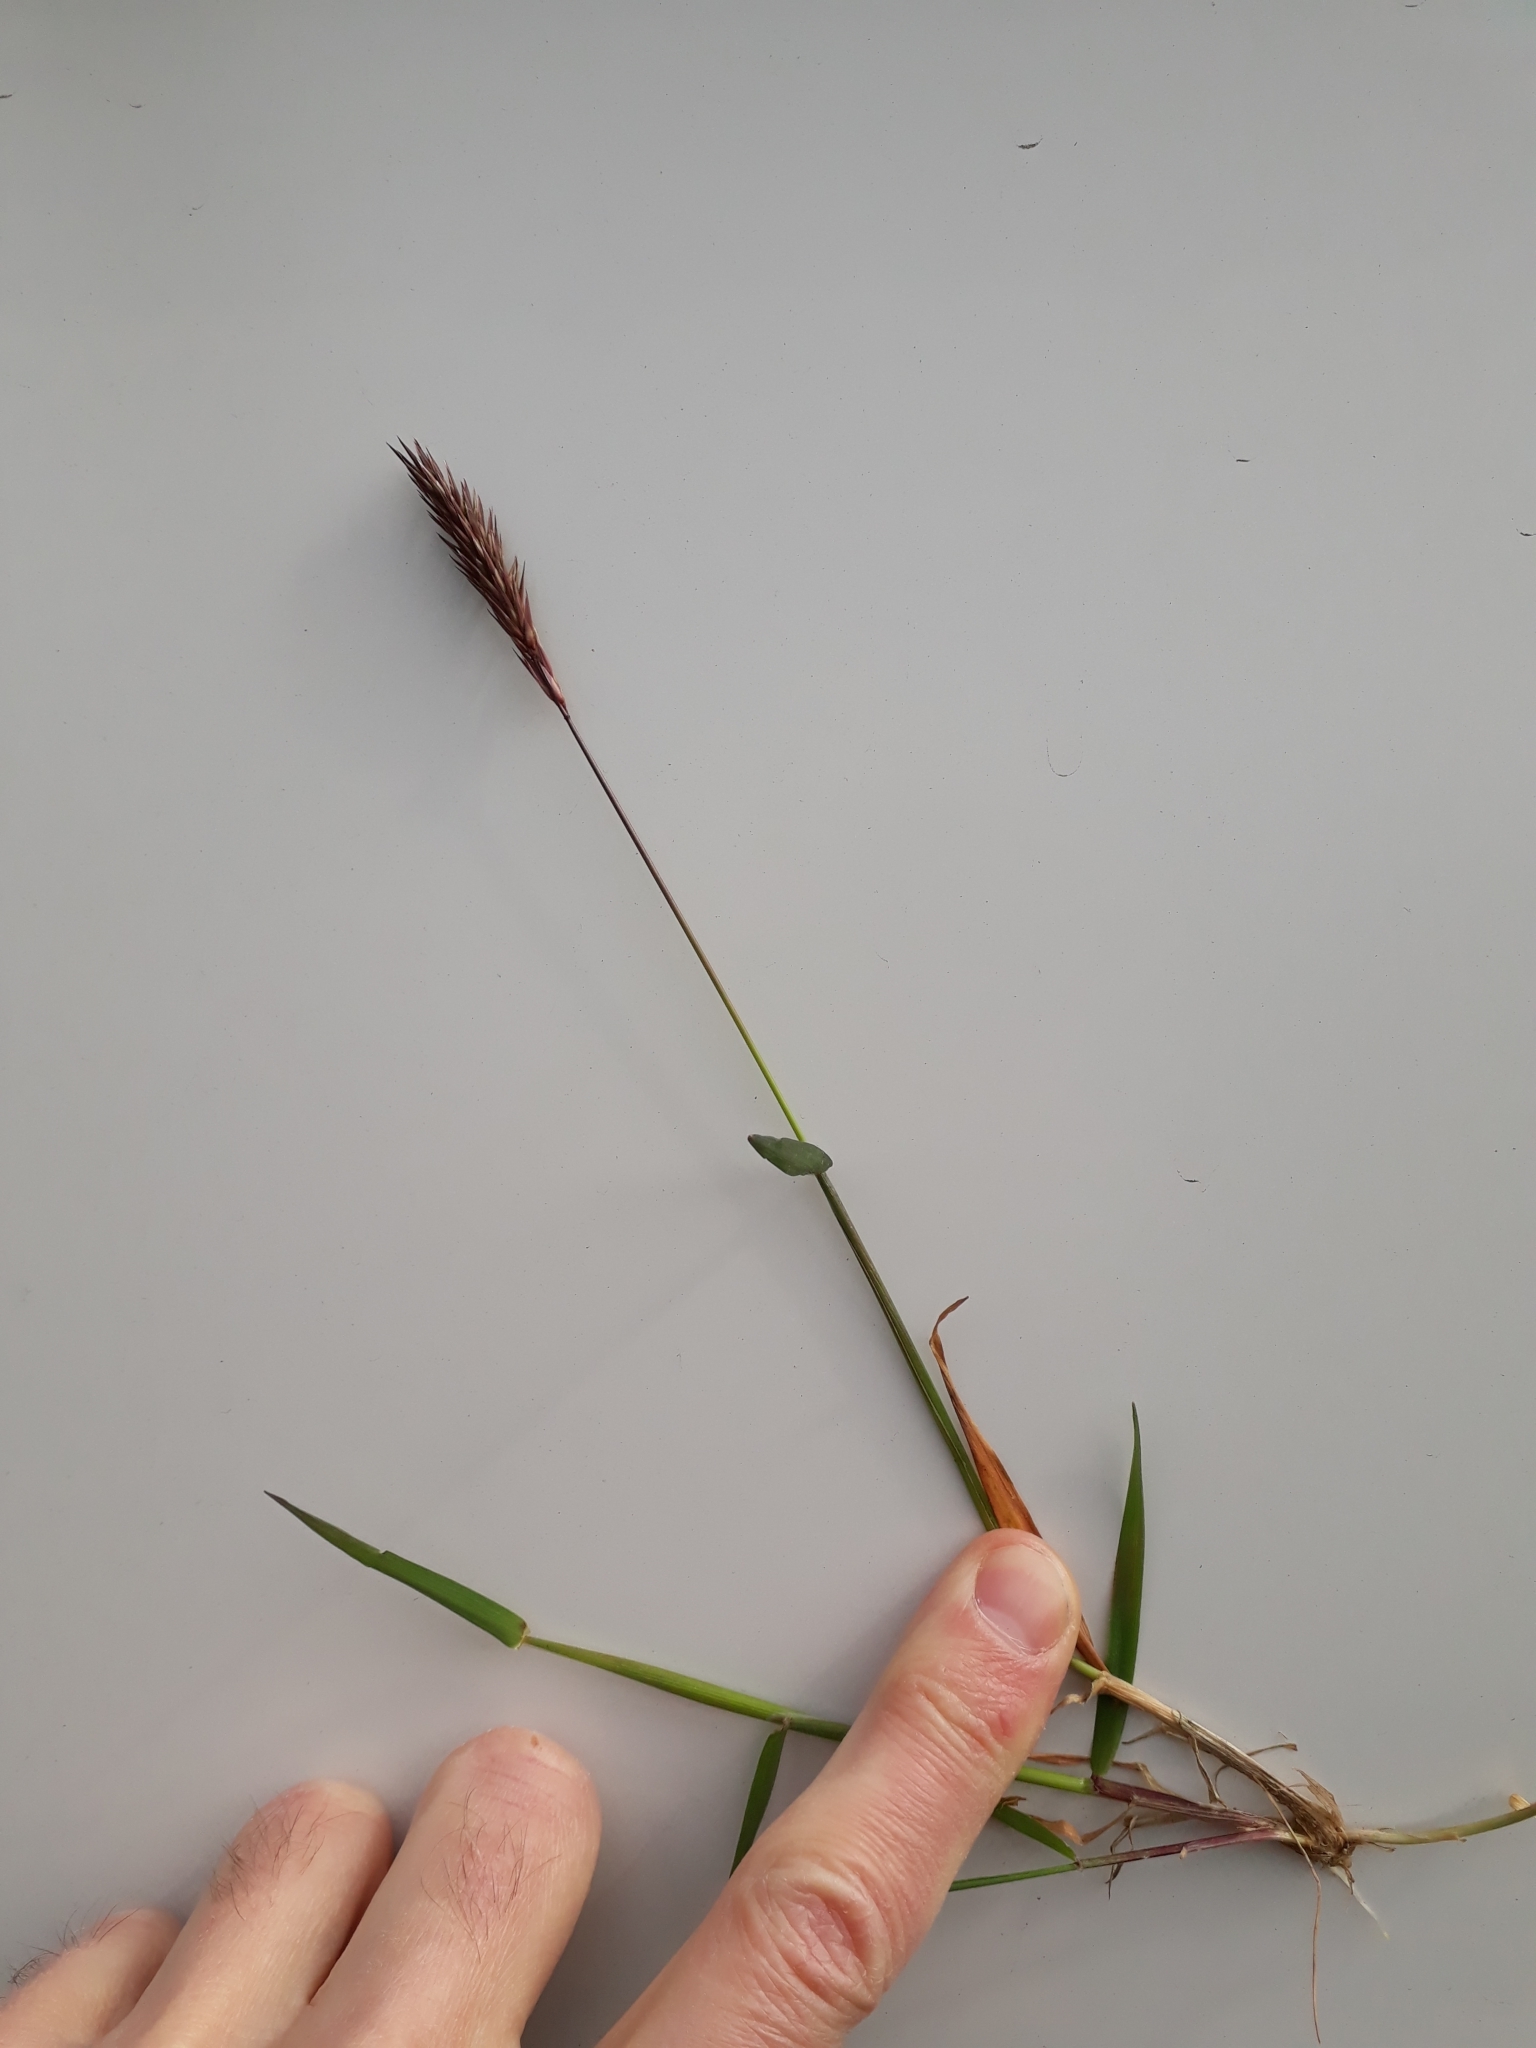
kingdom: Plantae
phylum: Tracheophyta
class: Liliopsida
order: Poales
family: Poaceae
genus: Anthoxanthum
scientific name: Anthoxanthum odoratum
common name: Sweet vernalgrass
